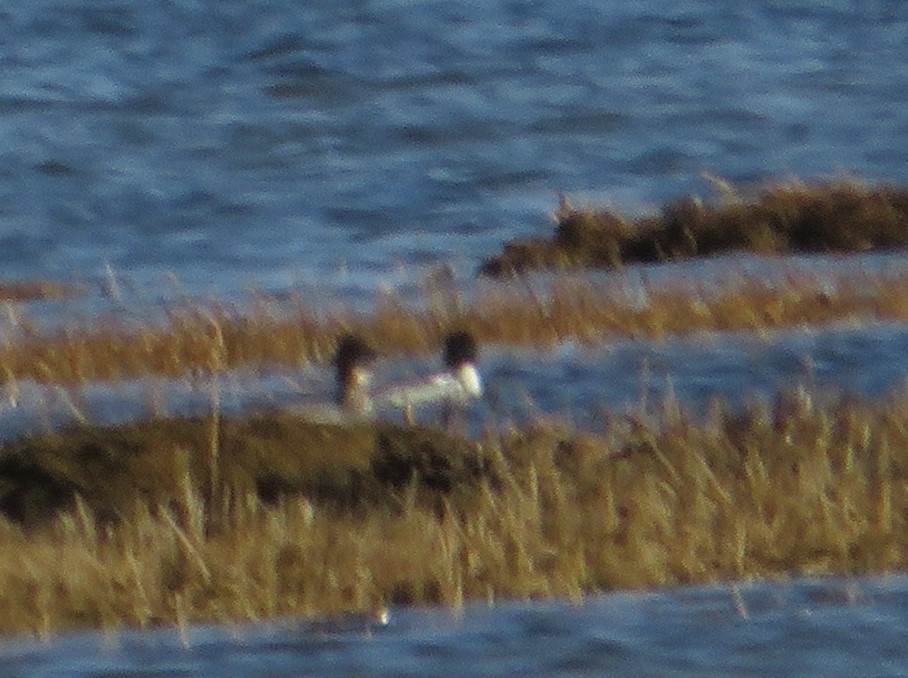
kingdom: Animalia
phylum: Chordata
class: Aves
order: Anseriformes
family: Anatidae
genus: Mergus
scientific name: Mergus merganser
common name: Common merganser
